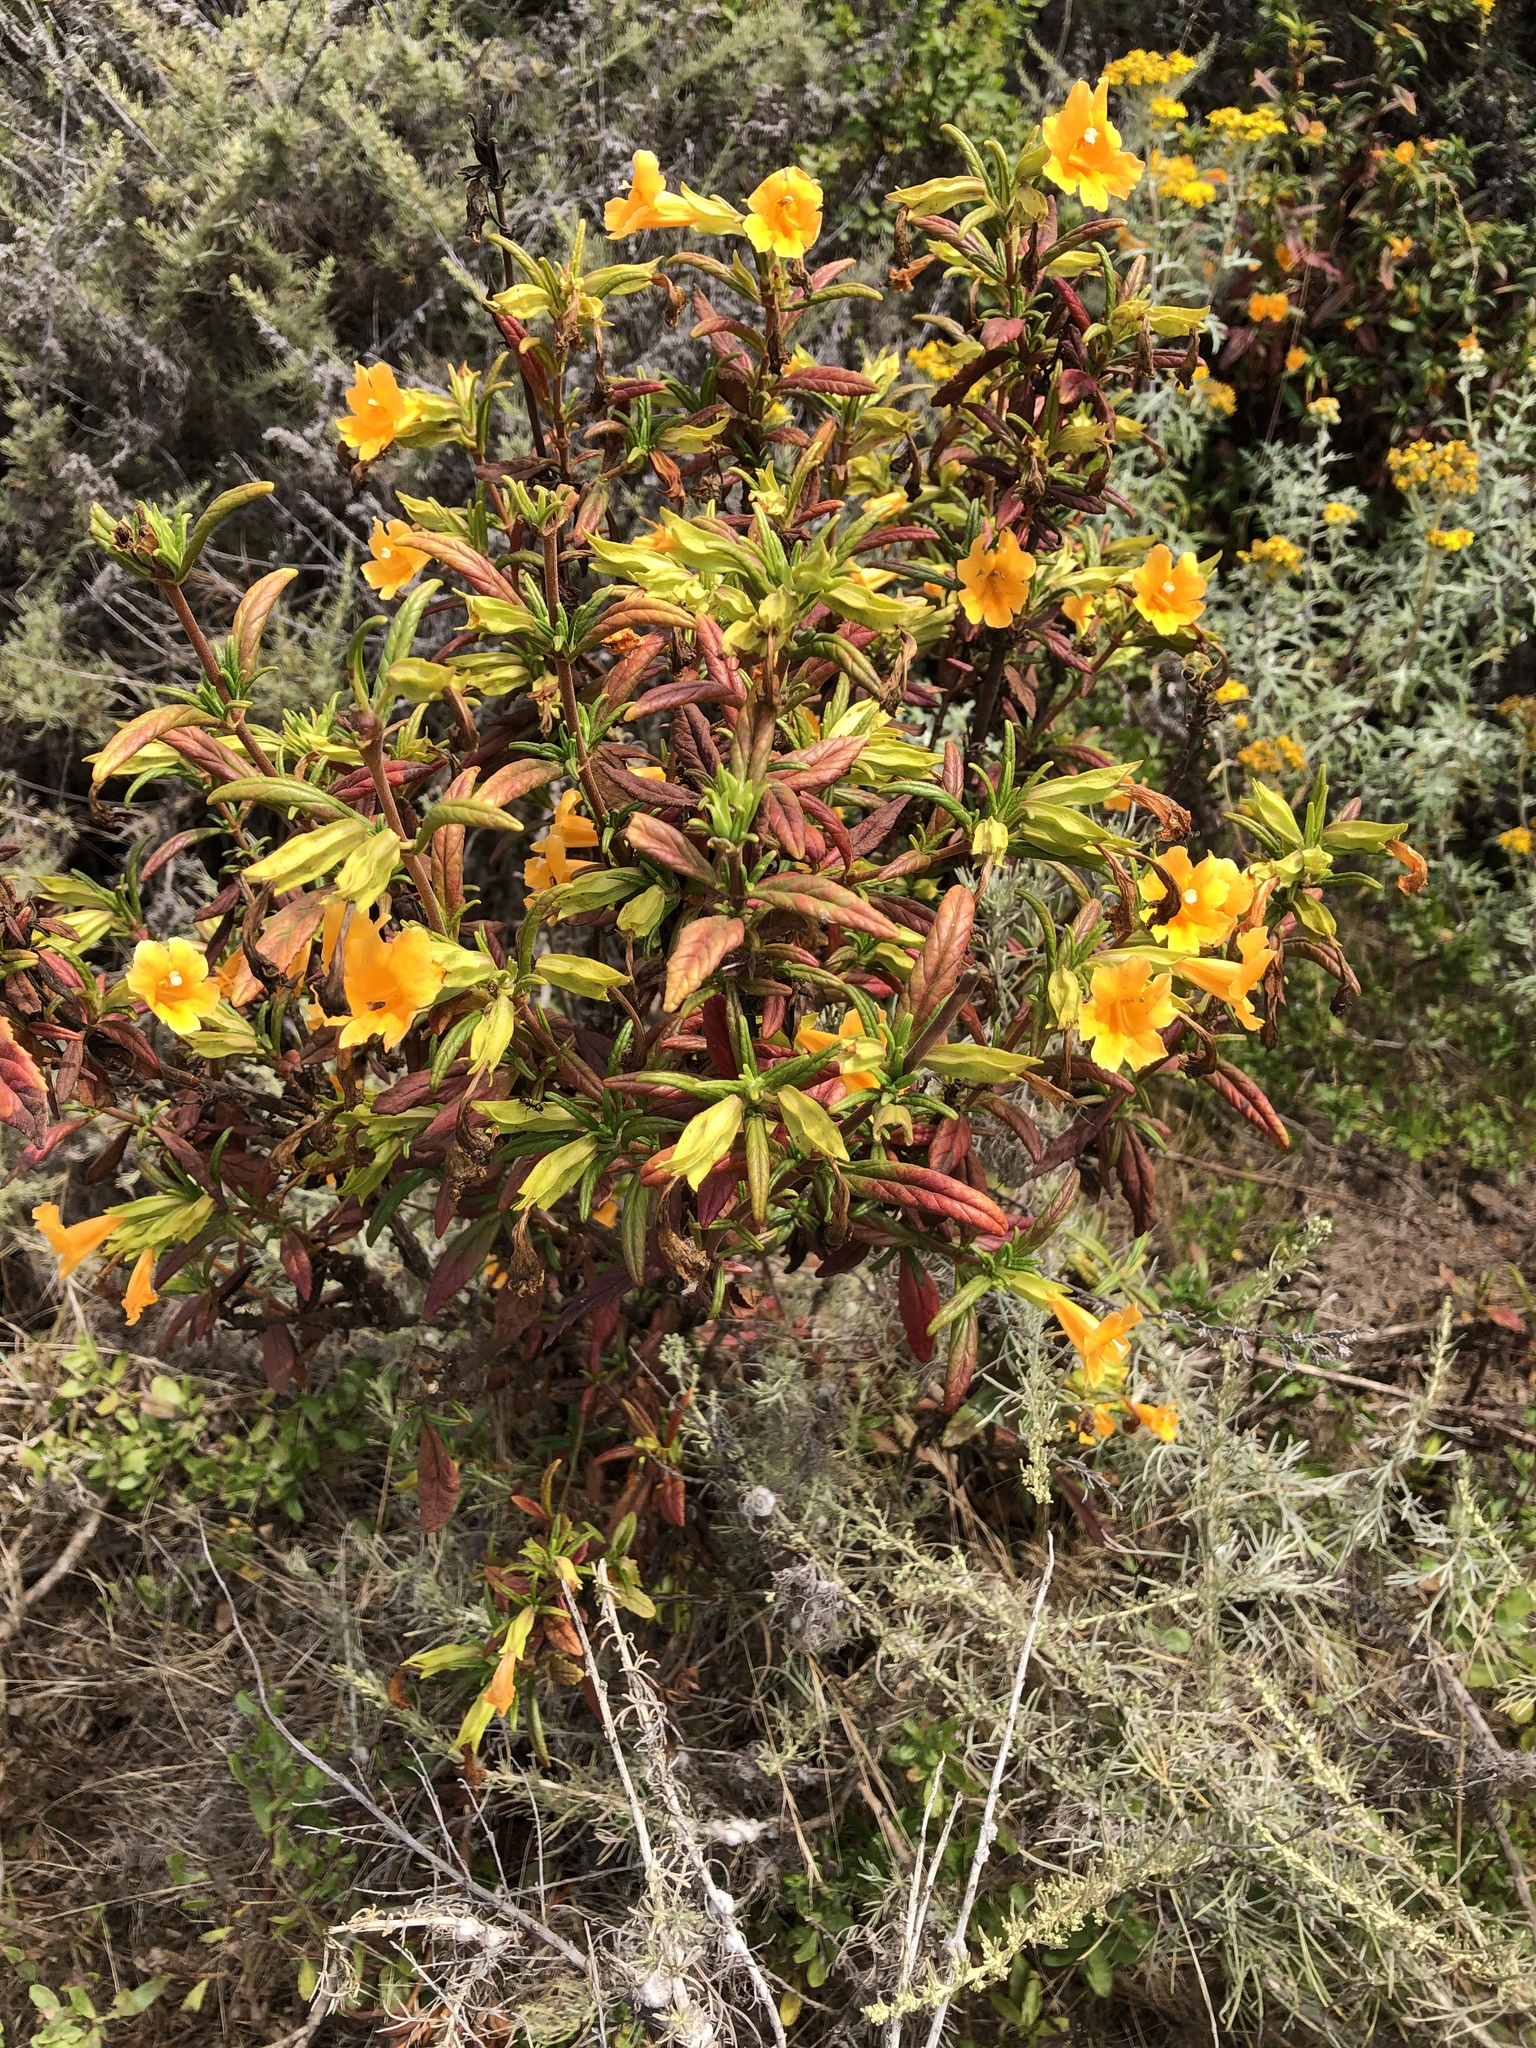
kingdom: Plantae
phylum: Tracheophyta
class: Magnoliopsida
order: Lamiales
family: Phrymaceae
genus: Diplacus
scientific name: Diplacus aurantiacus
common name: Bush monkey-flower
